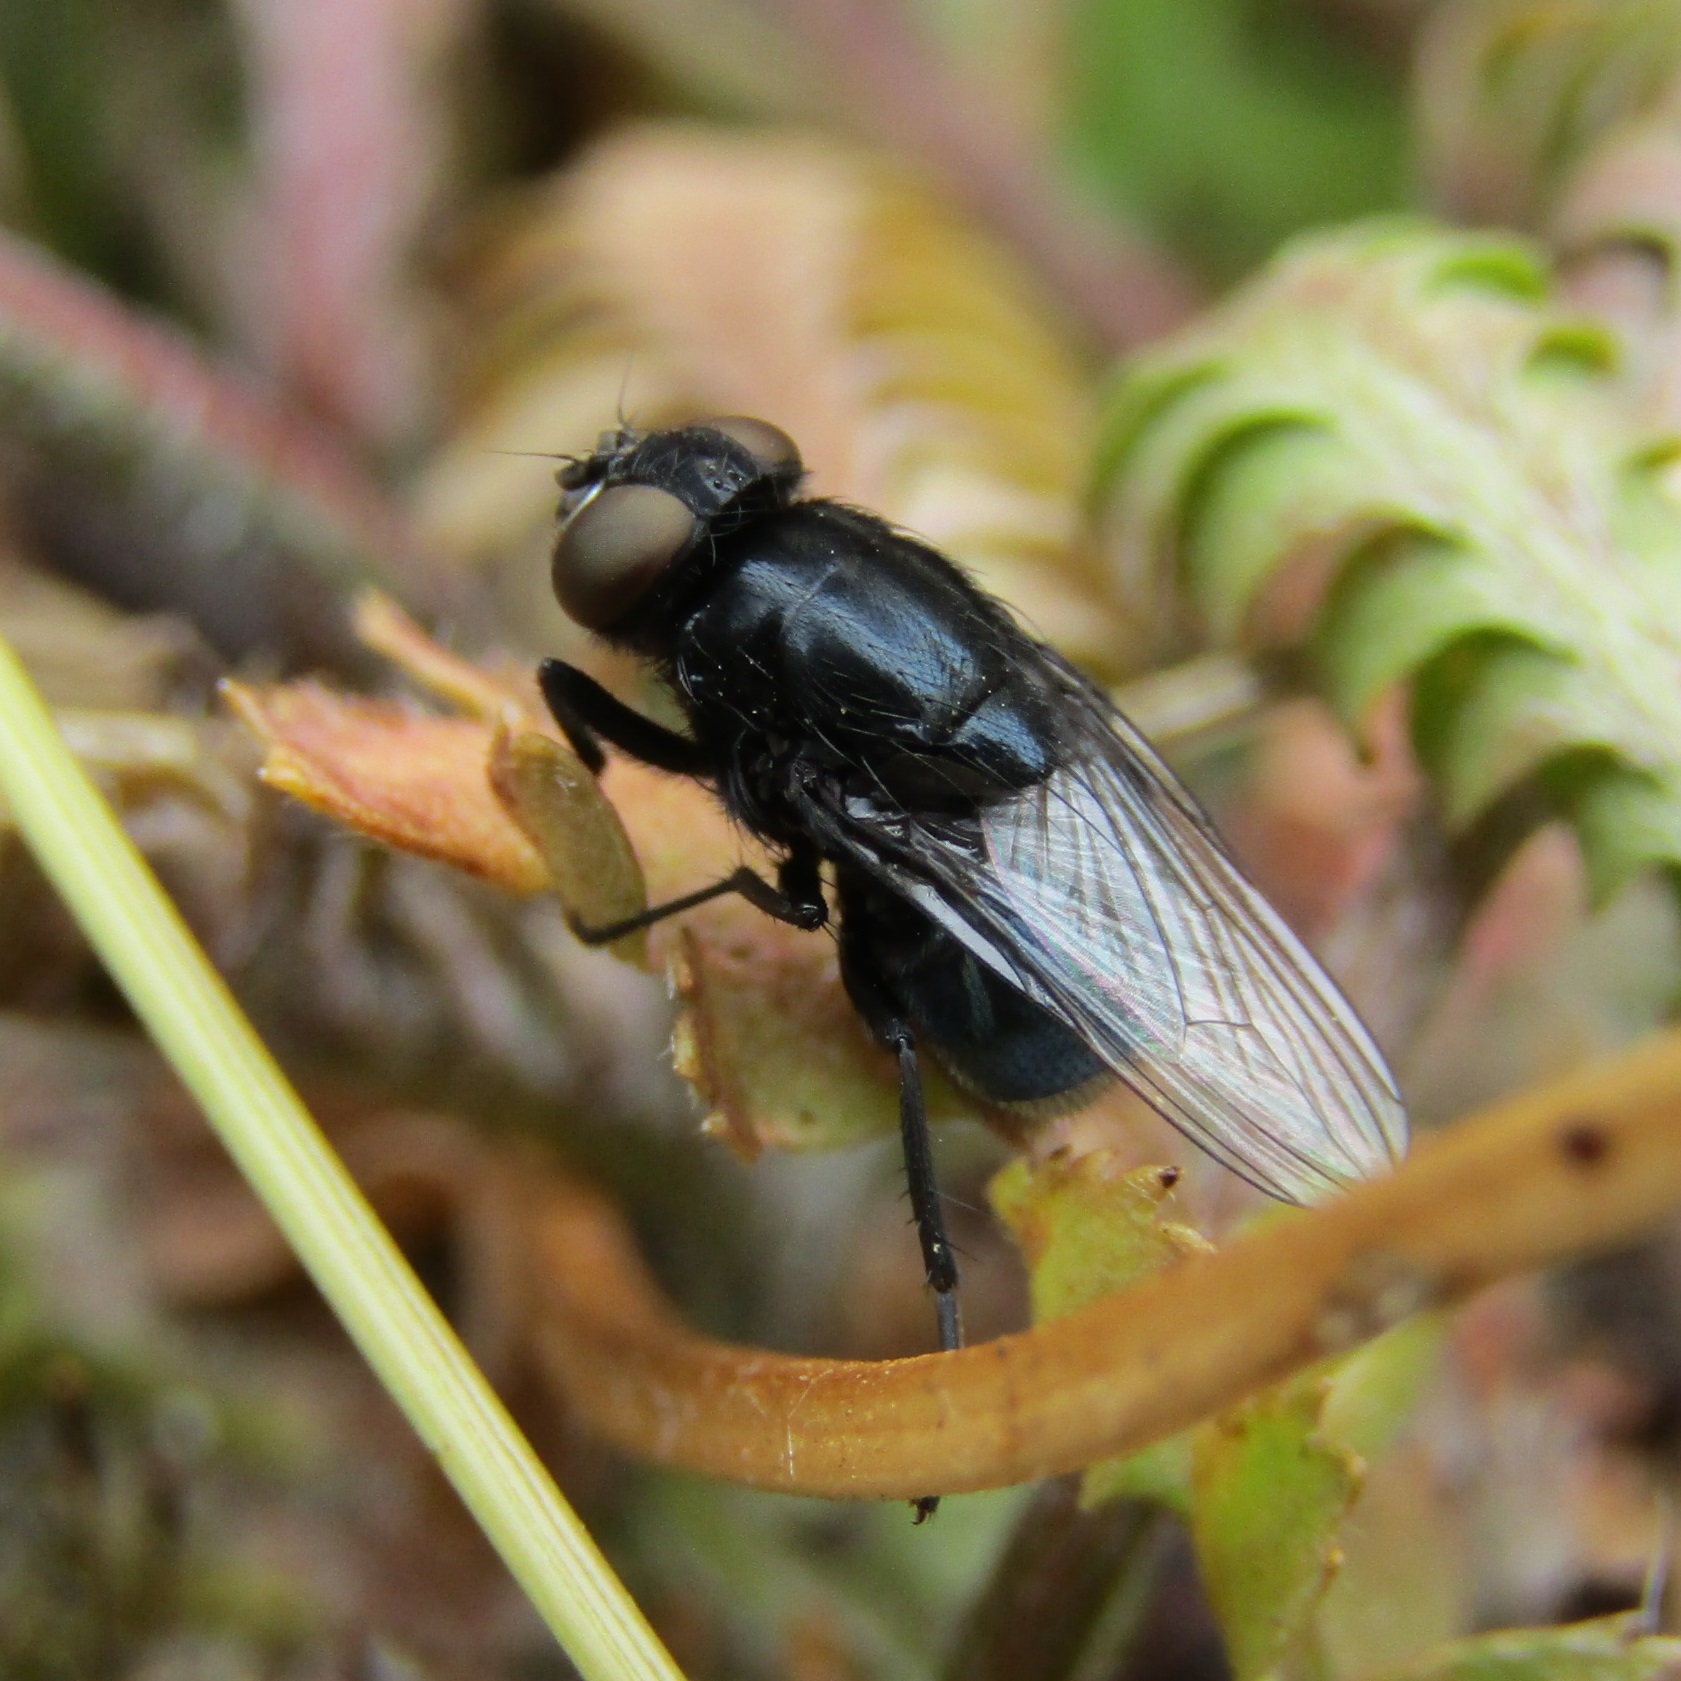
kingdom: Animalia
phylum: Arthropoda
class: Insecta
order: Diptera
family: Muscidae
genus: Australophyra
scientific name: Australophyra rostrata
